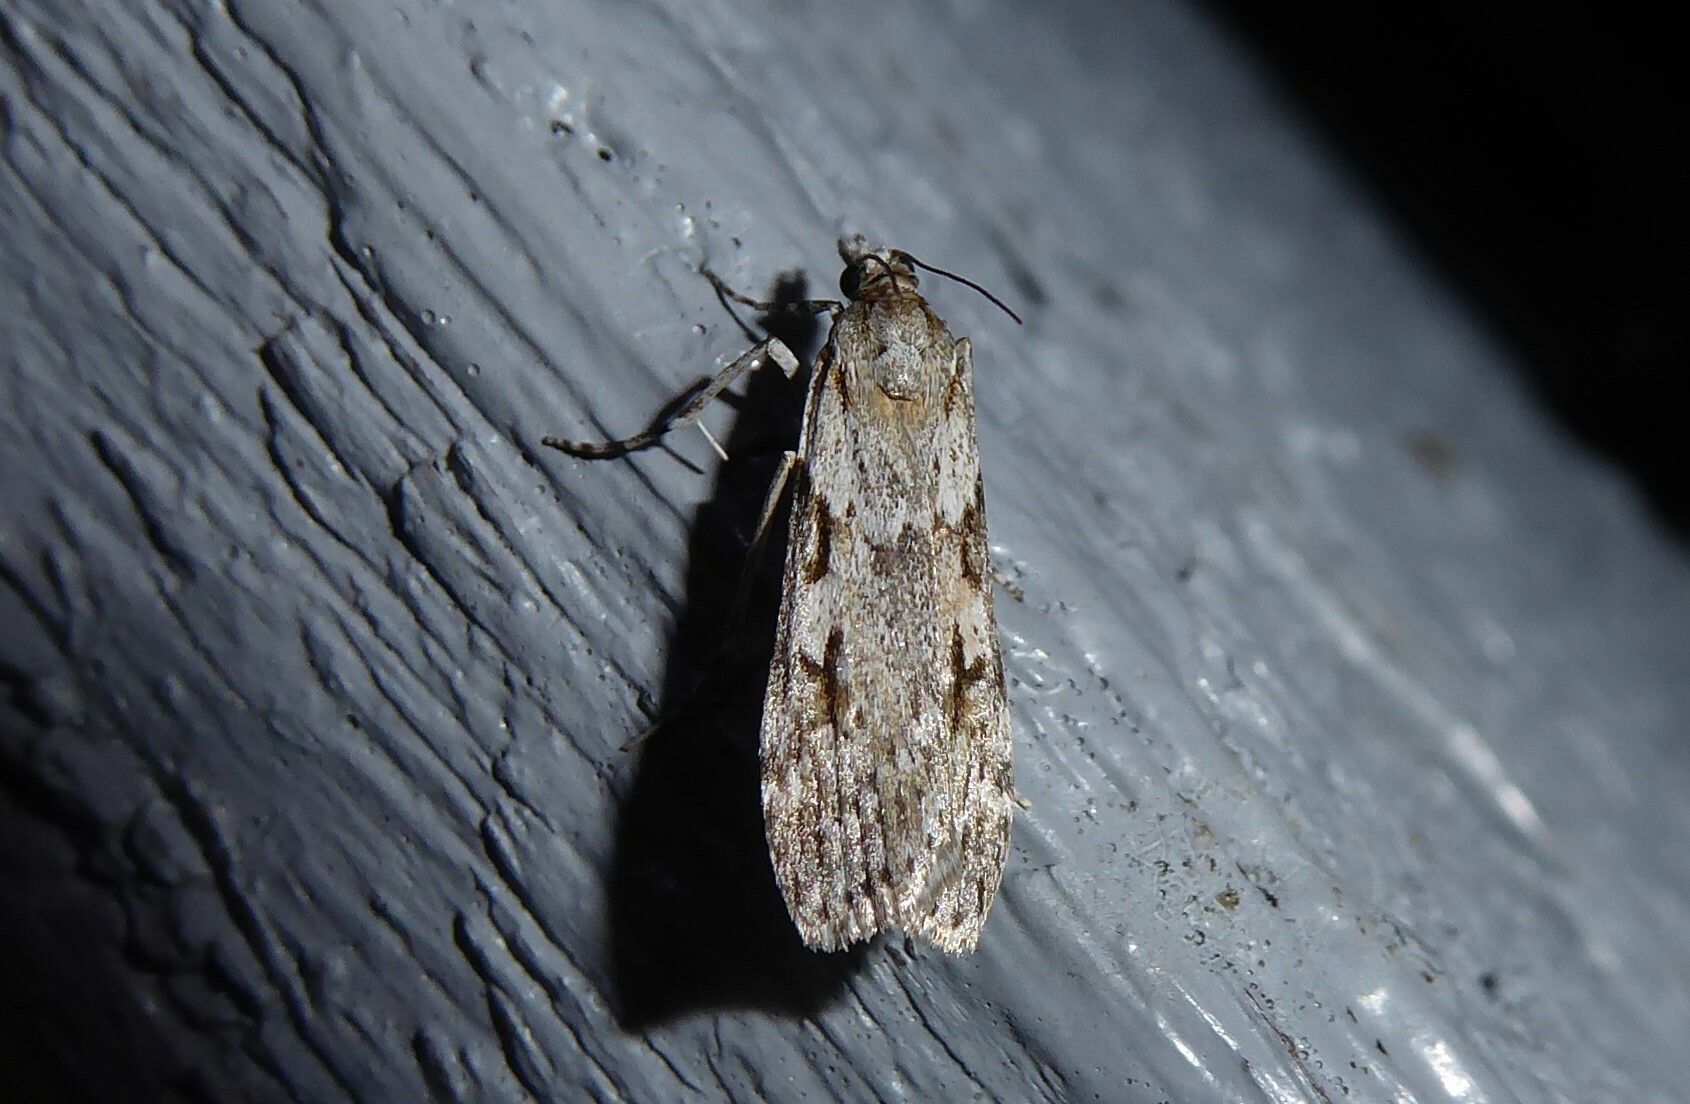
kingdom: Animalia
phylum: Arthropoda
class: Insecta
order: Lepidoptera
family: Crambidae
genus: Scoparia
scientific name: Scoparia halopis
